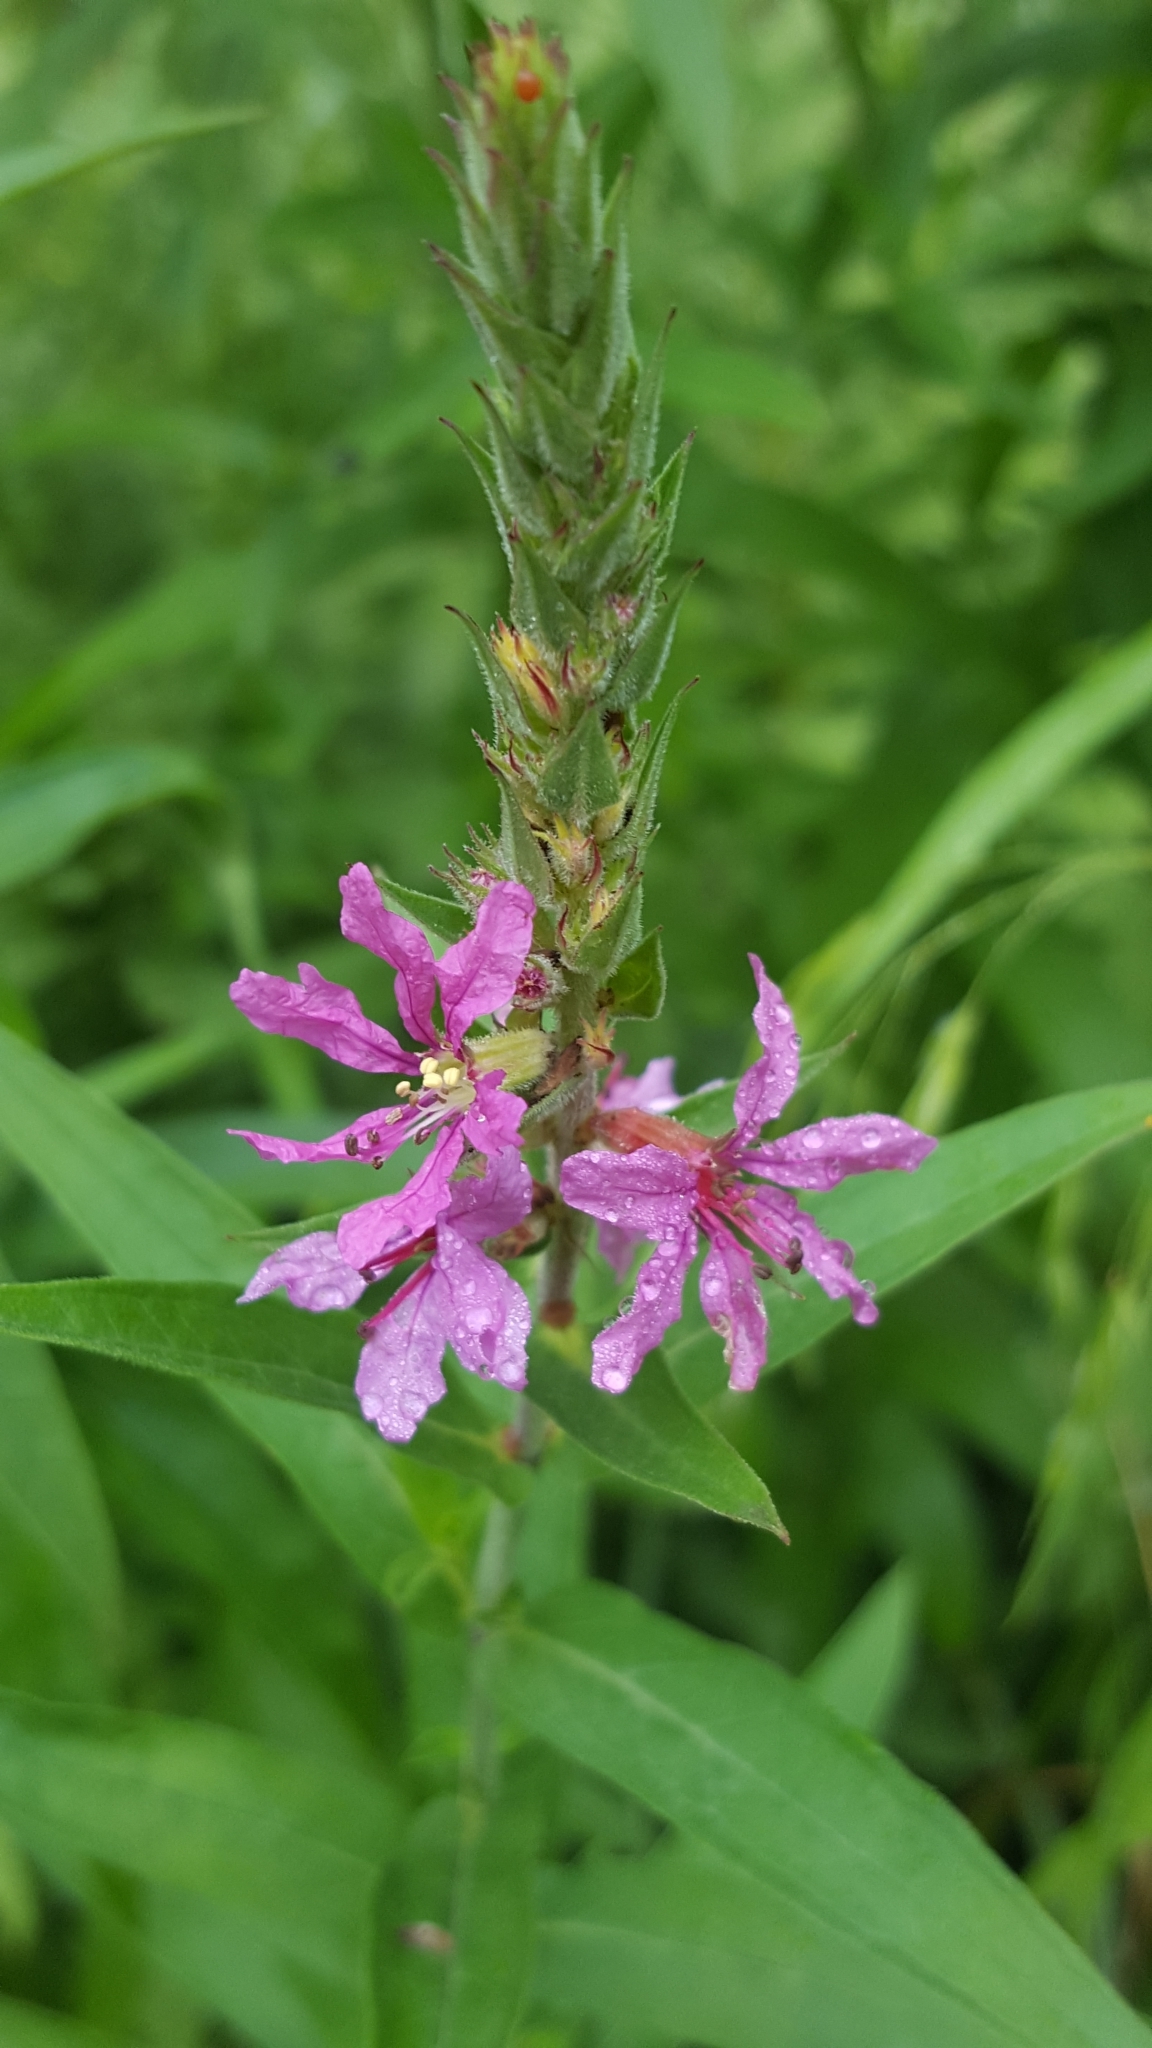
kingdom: Plantae
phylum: Tracheophyta
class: Magnoliopsida
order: Myrtales
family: Lythraceae
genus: Lythrum
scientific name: Lythrum salicaria
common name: Purple loosestrife
